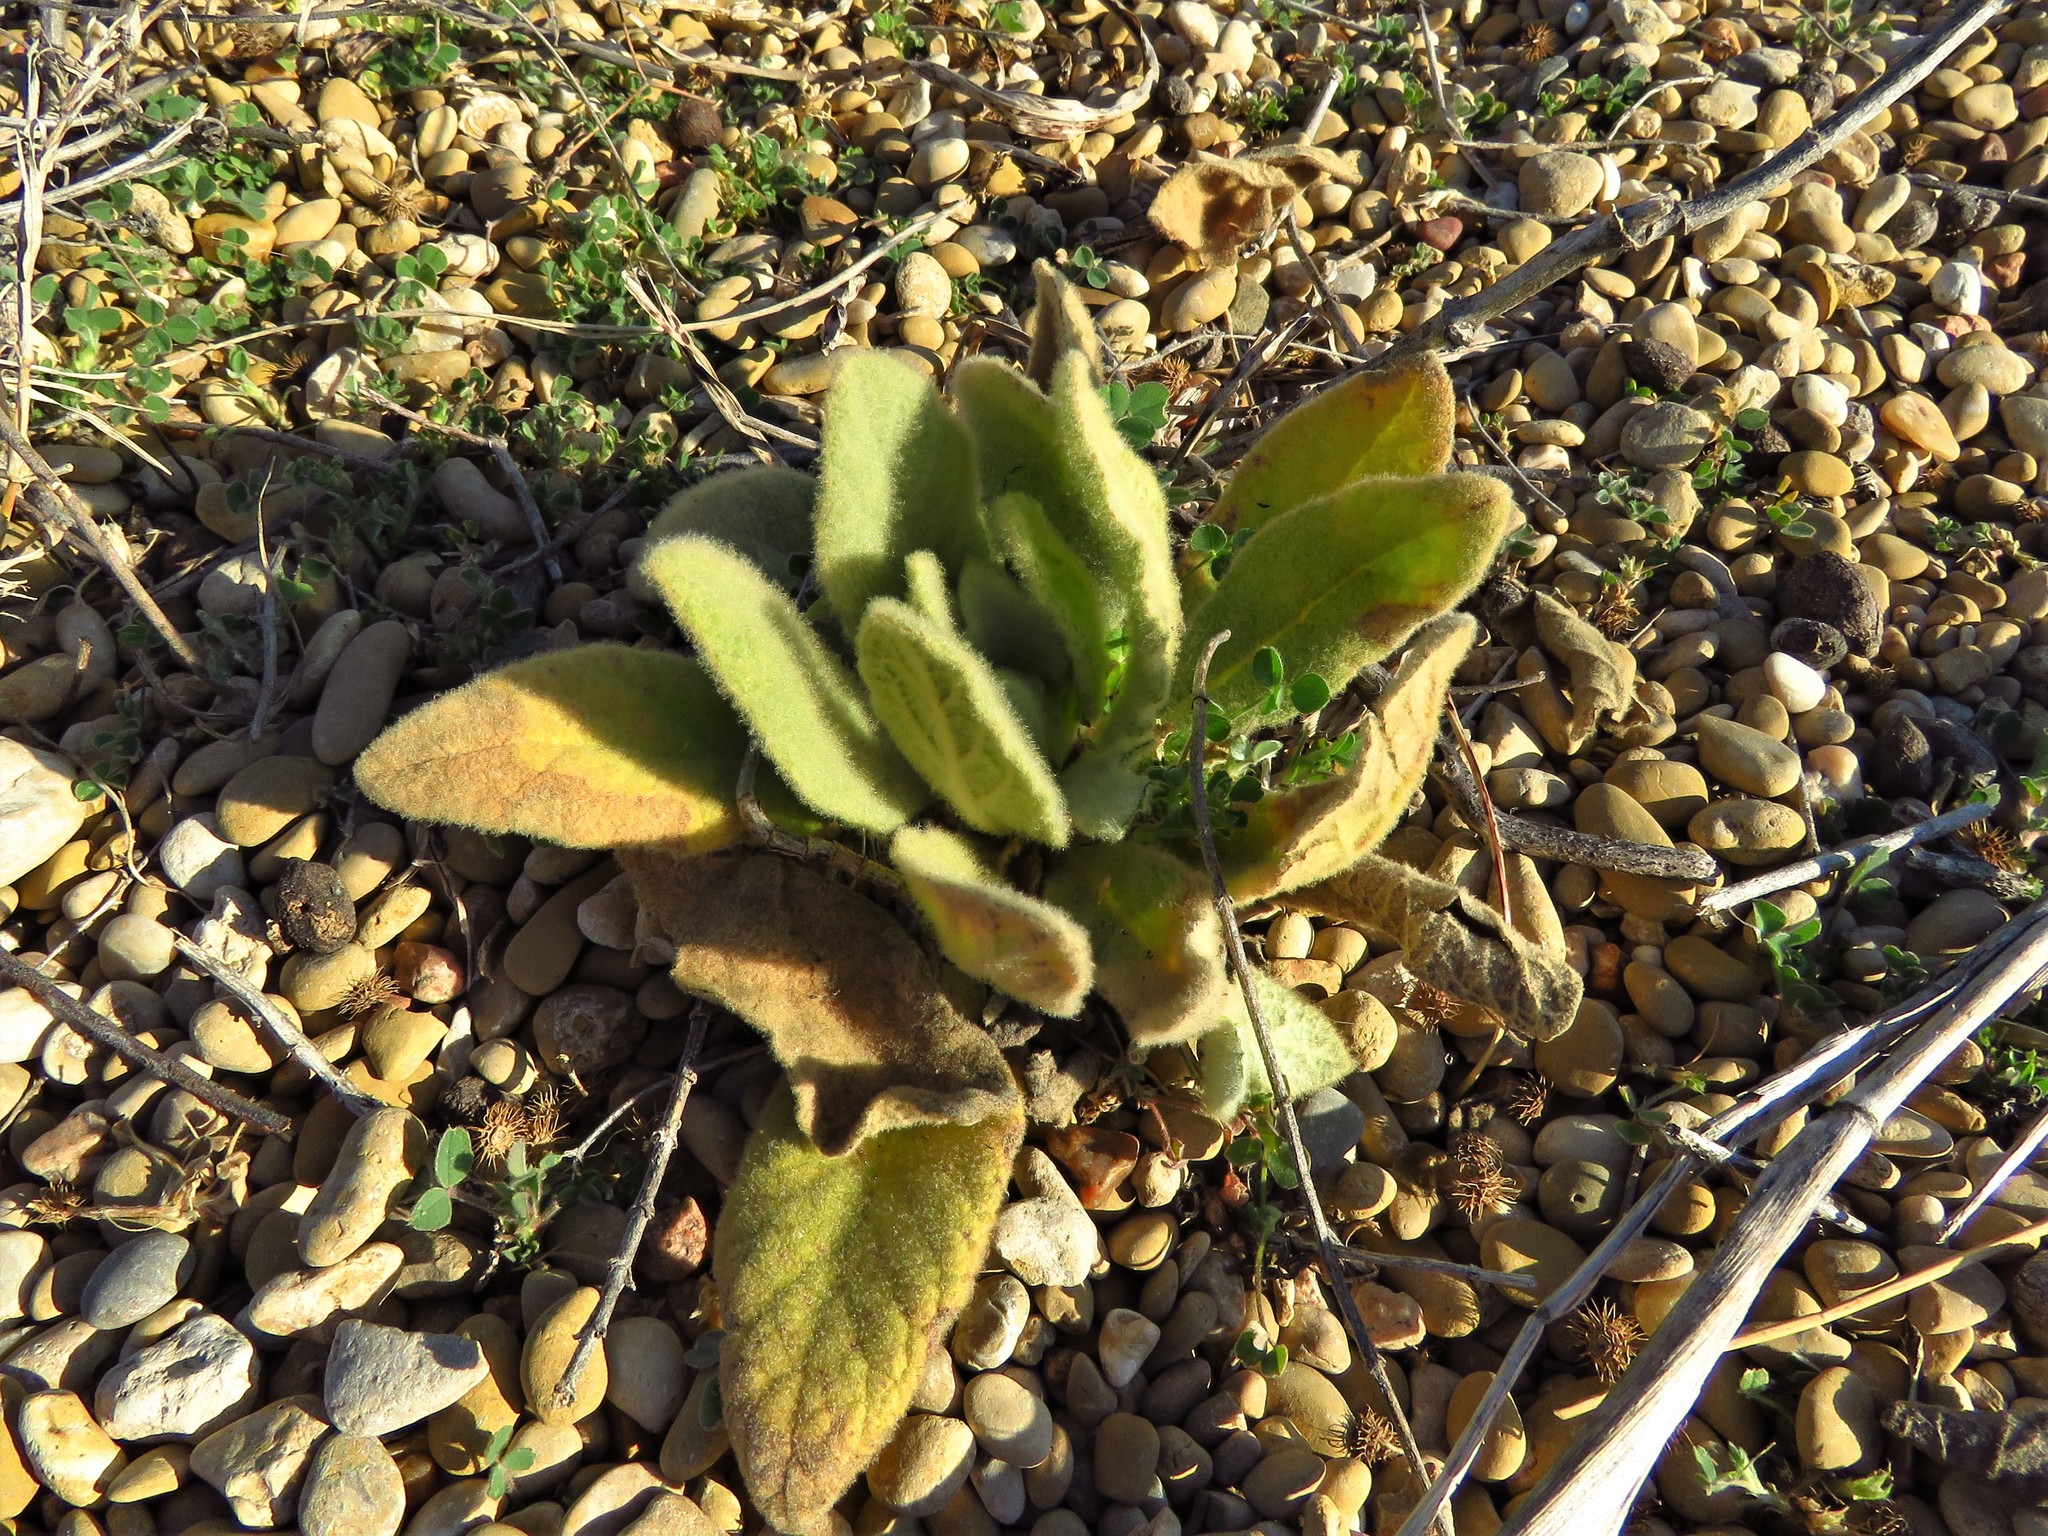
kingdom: Plantae
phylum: Tracheophyta
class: Magnoliopsida
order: Lamiales
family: Scrophulariaceae
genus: Verbascum
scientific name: Verbascum thapsus
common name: Common mullein
